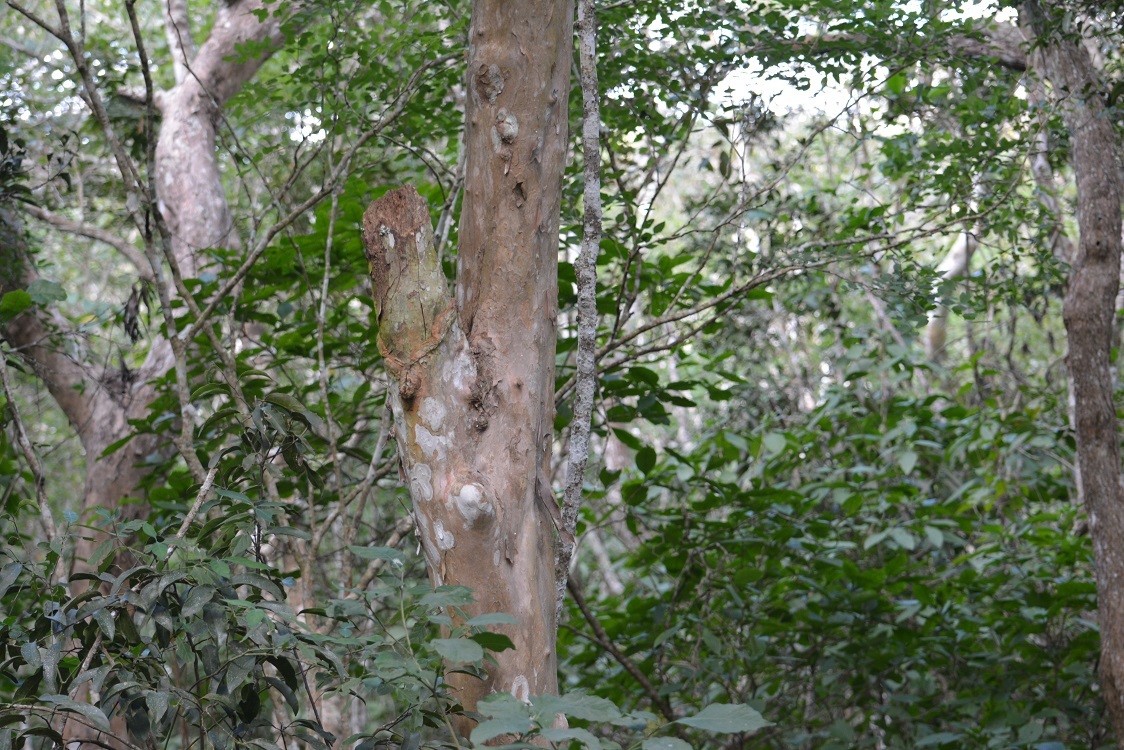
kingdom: Plantae
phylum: Tracheophyta
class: Magnoliopsida
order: Gentianales
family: Rubiaceae
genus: Guettarda
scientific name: Guettarda combsii
